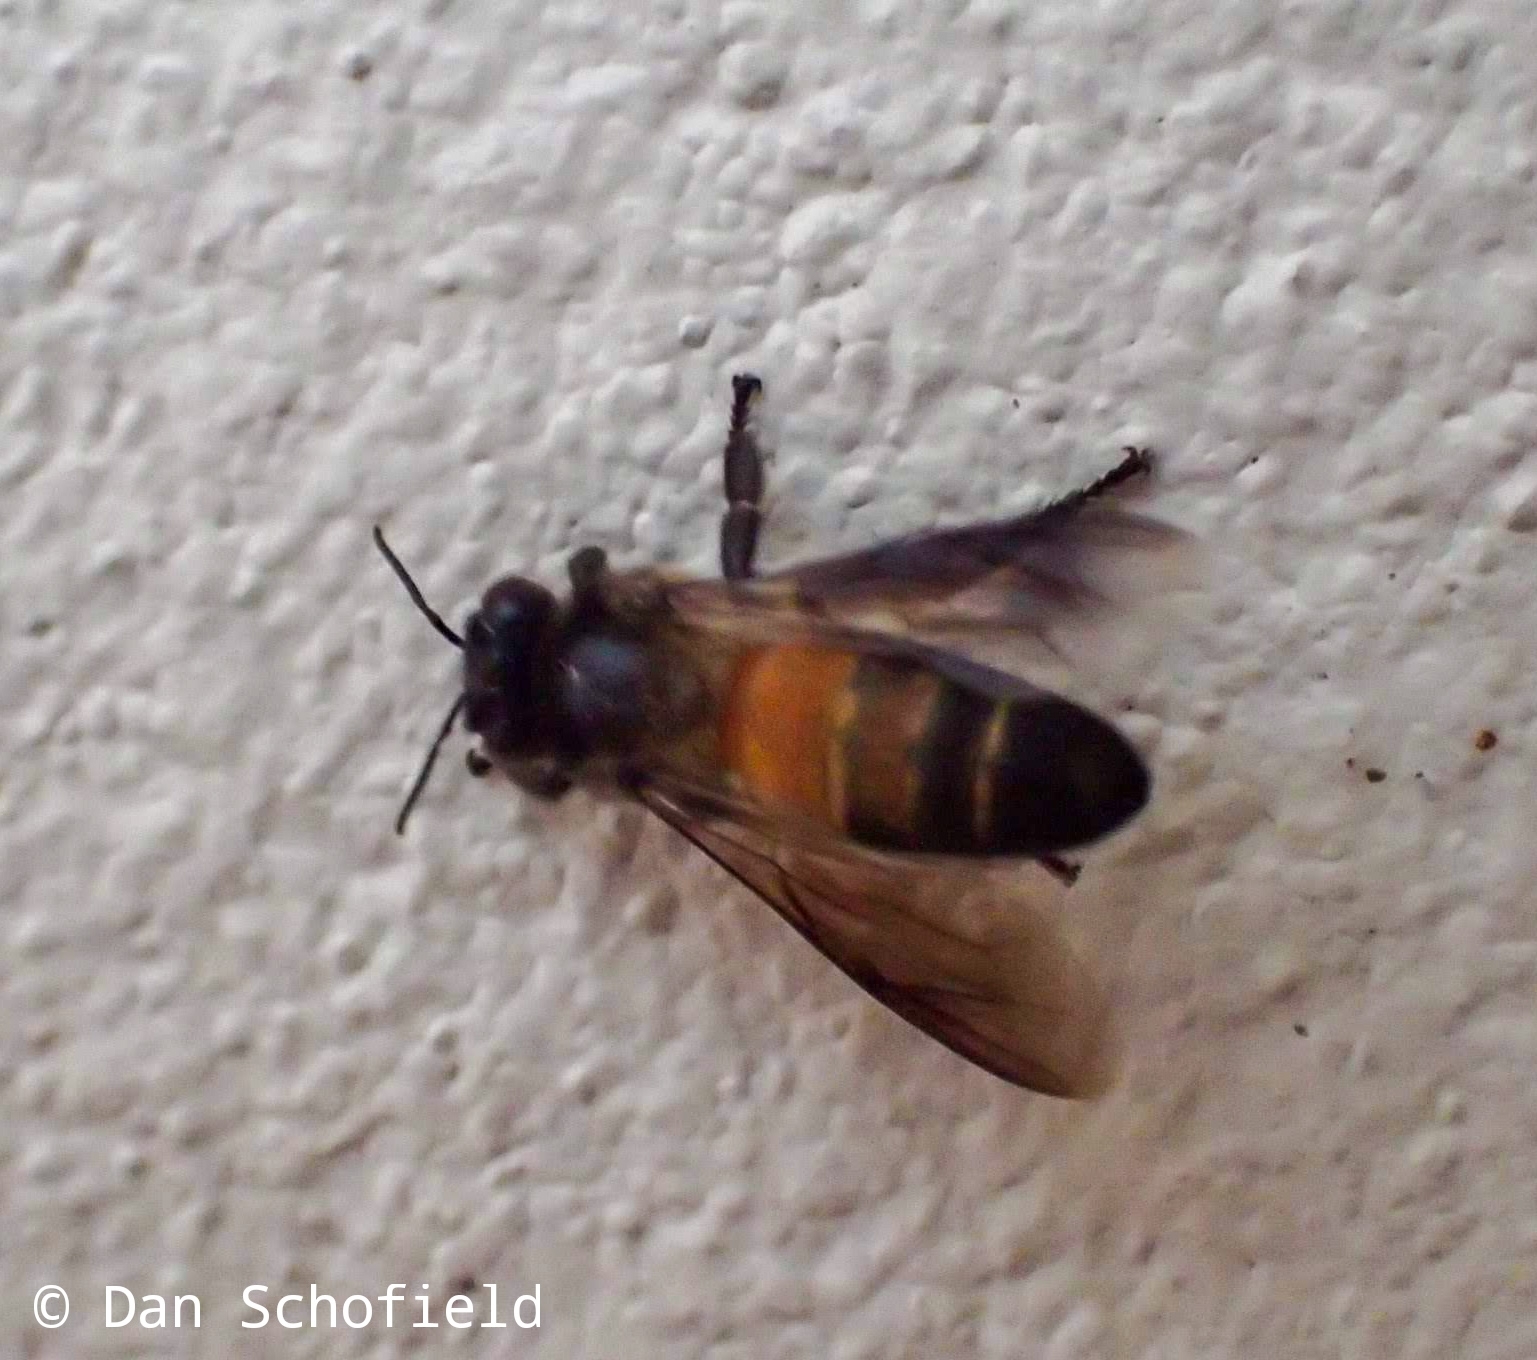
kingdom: Animalia
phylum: Arthropoda
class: Insecta
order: Hymenoptera
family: Apidae
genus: Apis
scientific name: Apis dorsata
